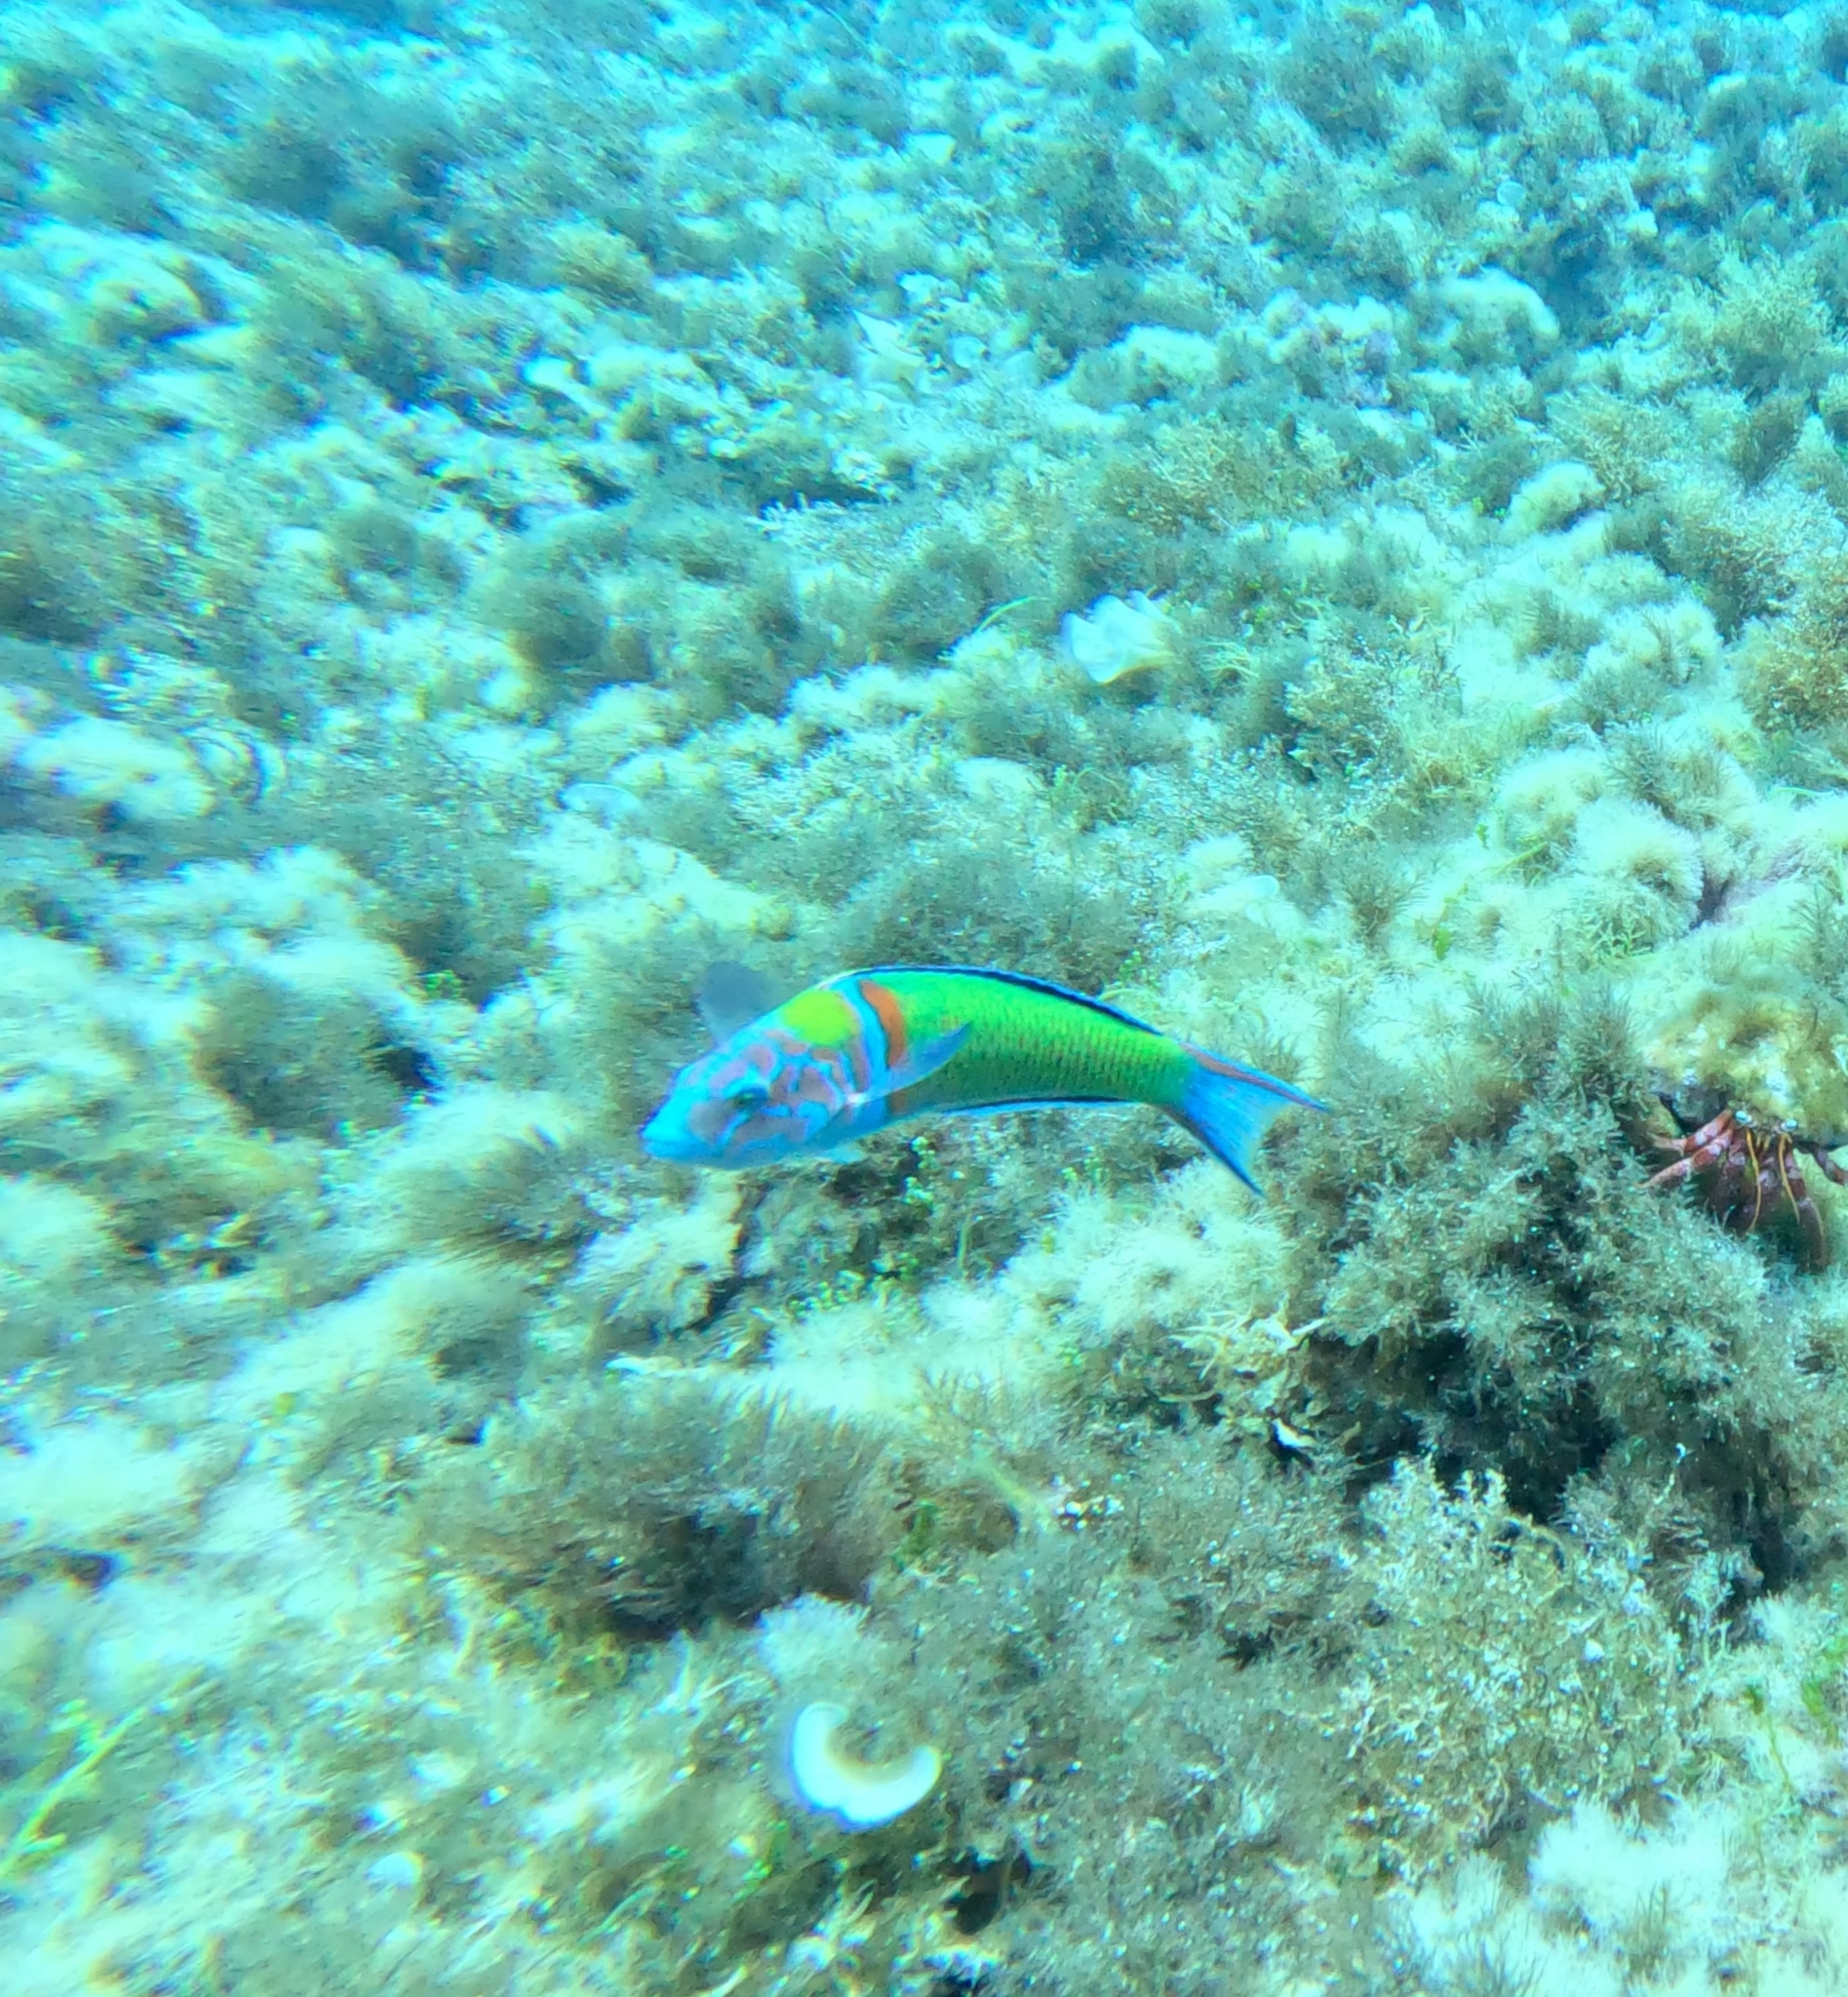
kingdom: Animalia
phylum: Chordata
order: Perciformes
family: Labridae
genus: Thalassoma
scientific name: Thalassoma pavo
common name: Ornate wrasse
